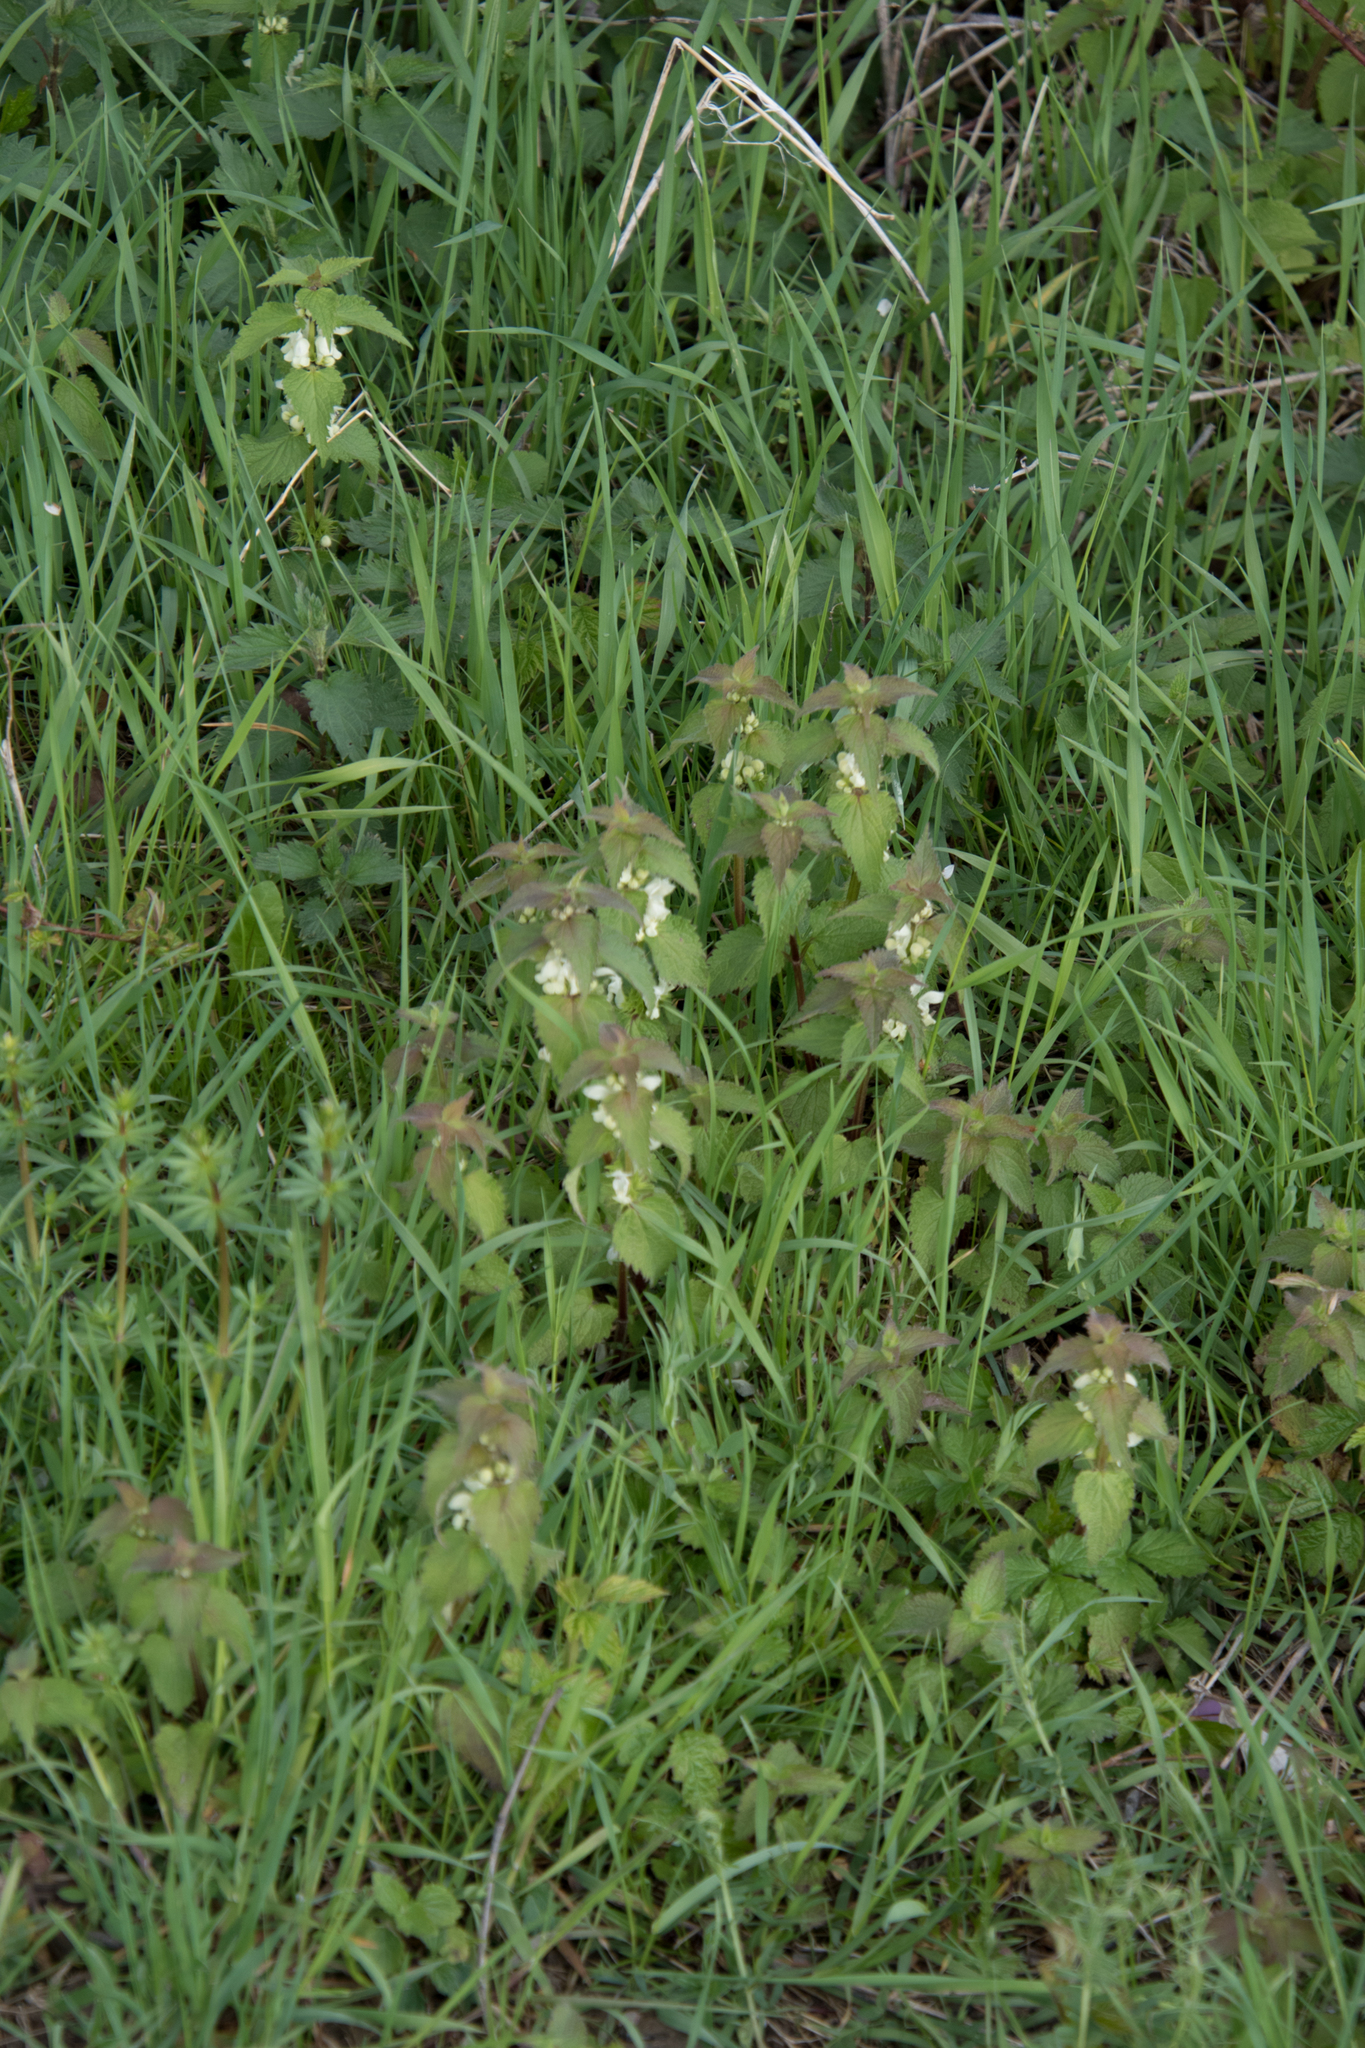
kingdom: Plantae
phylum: Tracheophyta
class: Magnoliopsida
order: Lamiales
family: Lamiaceae
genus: Lamium
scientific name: Lamium album
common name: White dead-nettle
